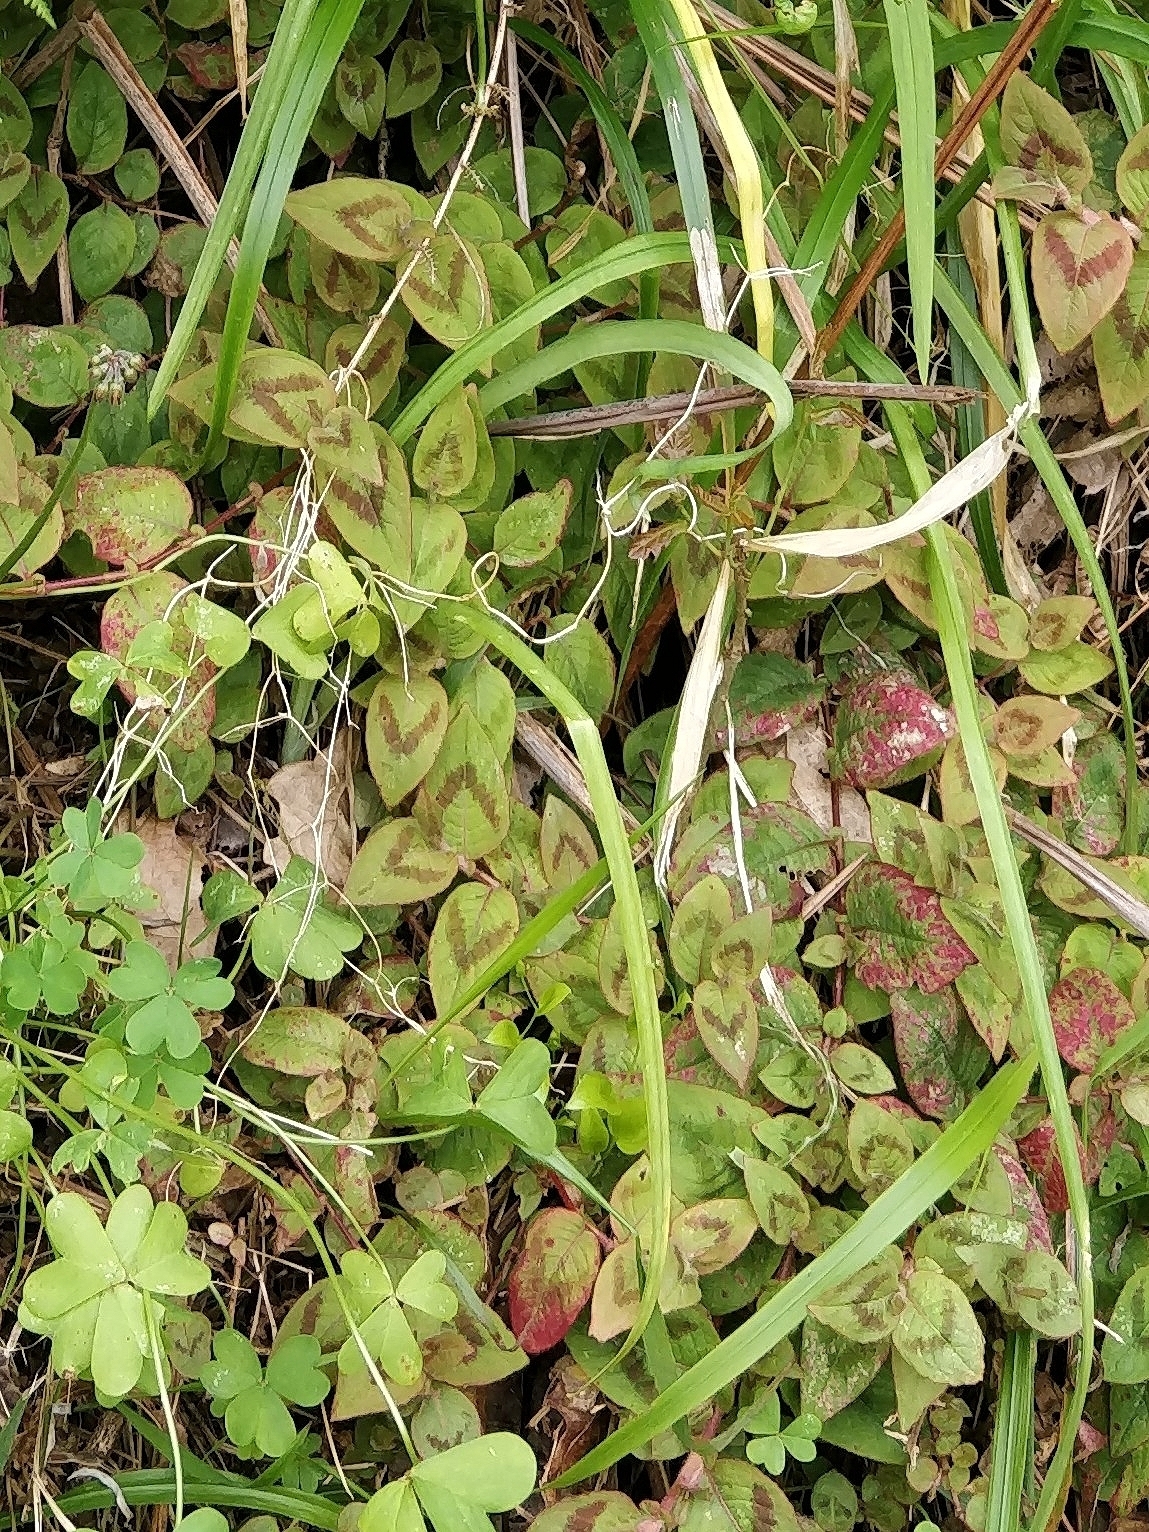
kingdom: Plantae
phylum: Tracheophyta
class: Magnoliopsida
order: Caryophyllales
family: Polygonaceae
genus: Persicaria
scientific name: Persicaria capitata
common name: Pinkhead smartweed
